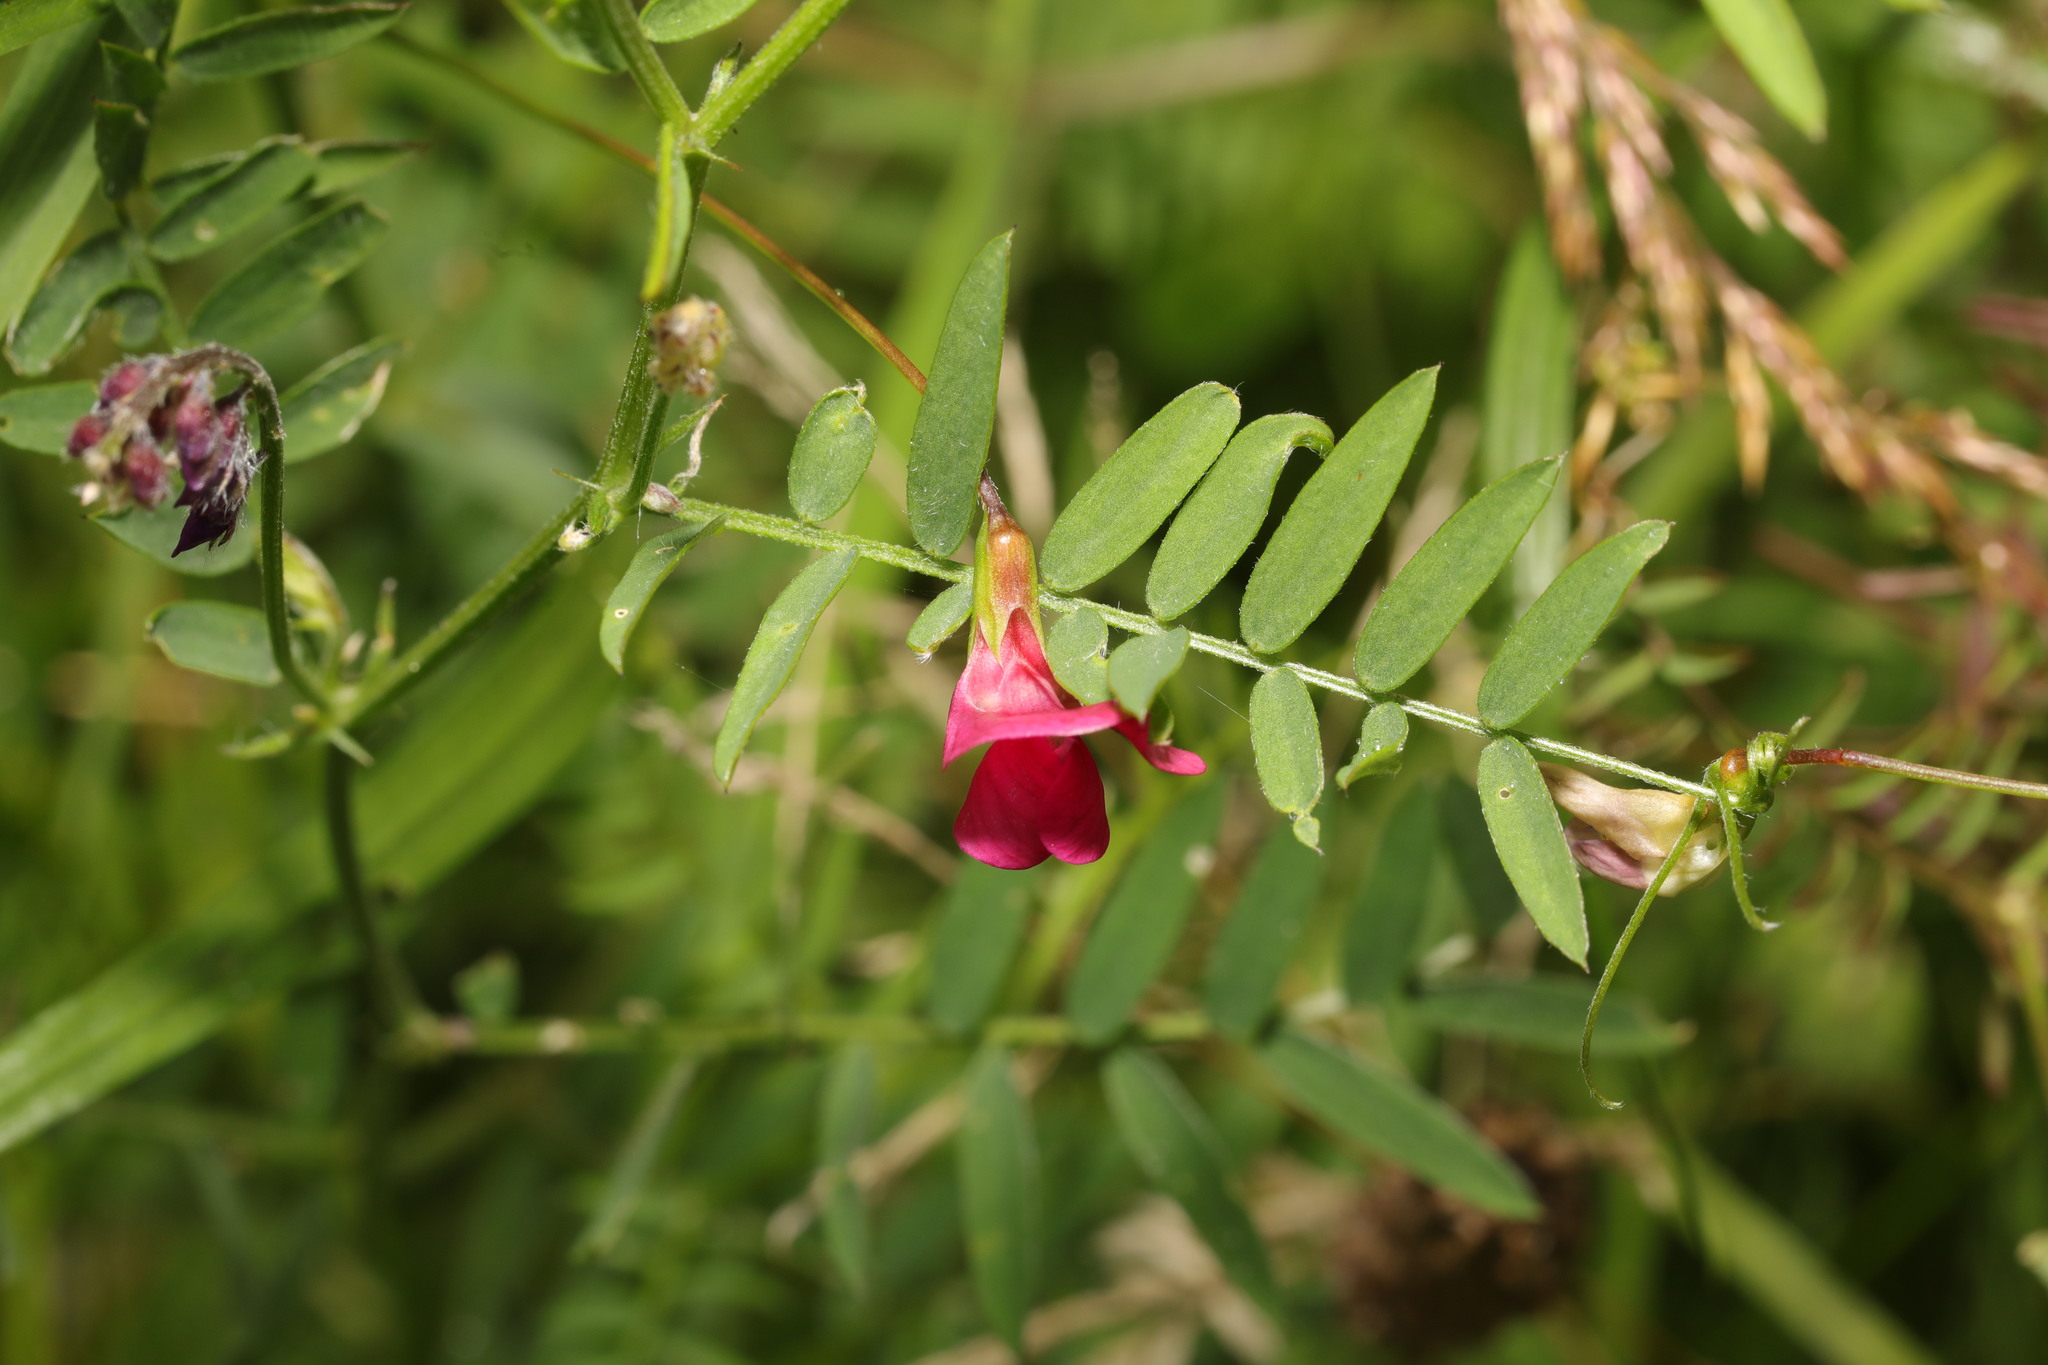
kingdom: Plantae
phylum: Tracheophyta
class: Magnoliopsida
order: Fabales
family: Fabaceae
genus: Vicia
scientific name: Vicia sativa
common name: Garden vetch
